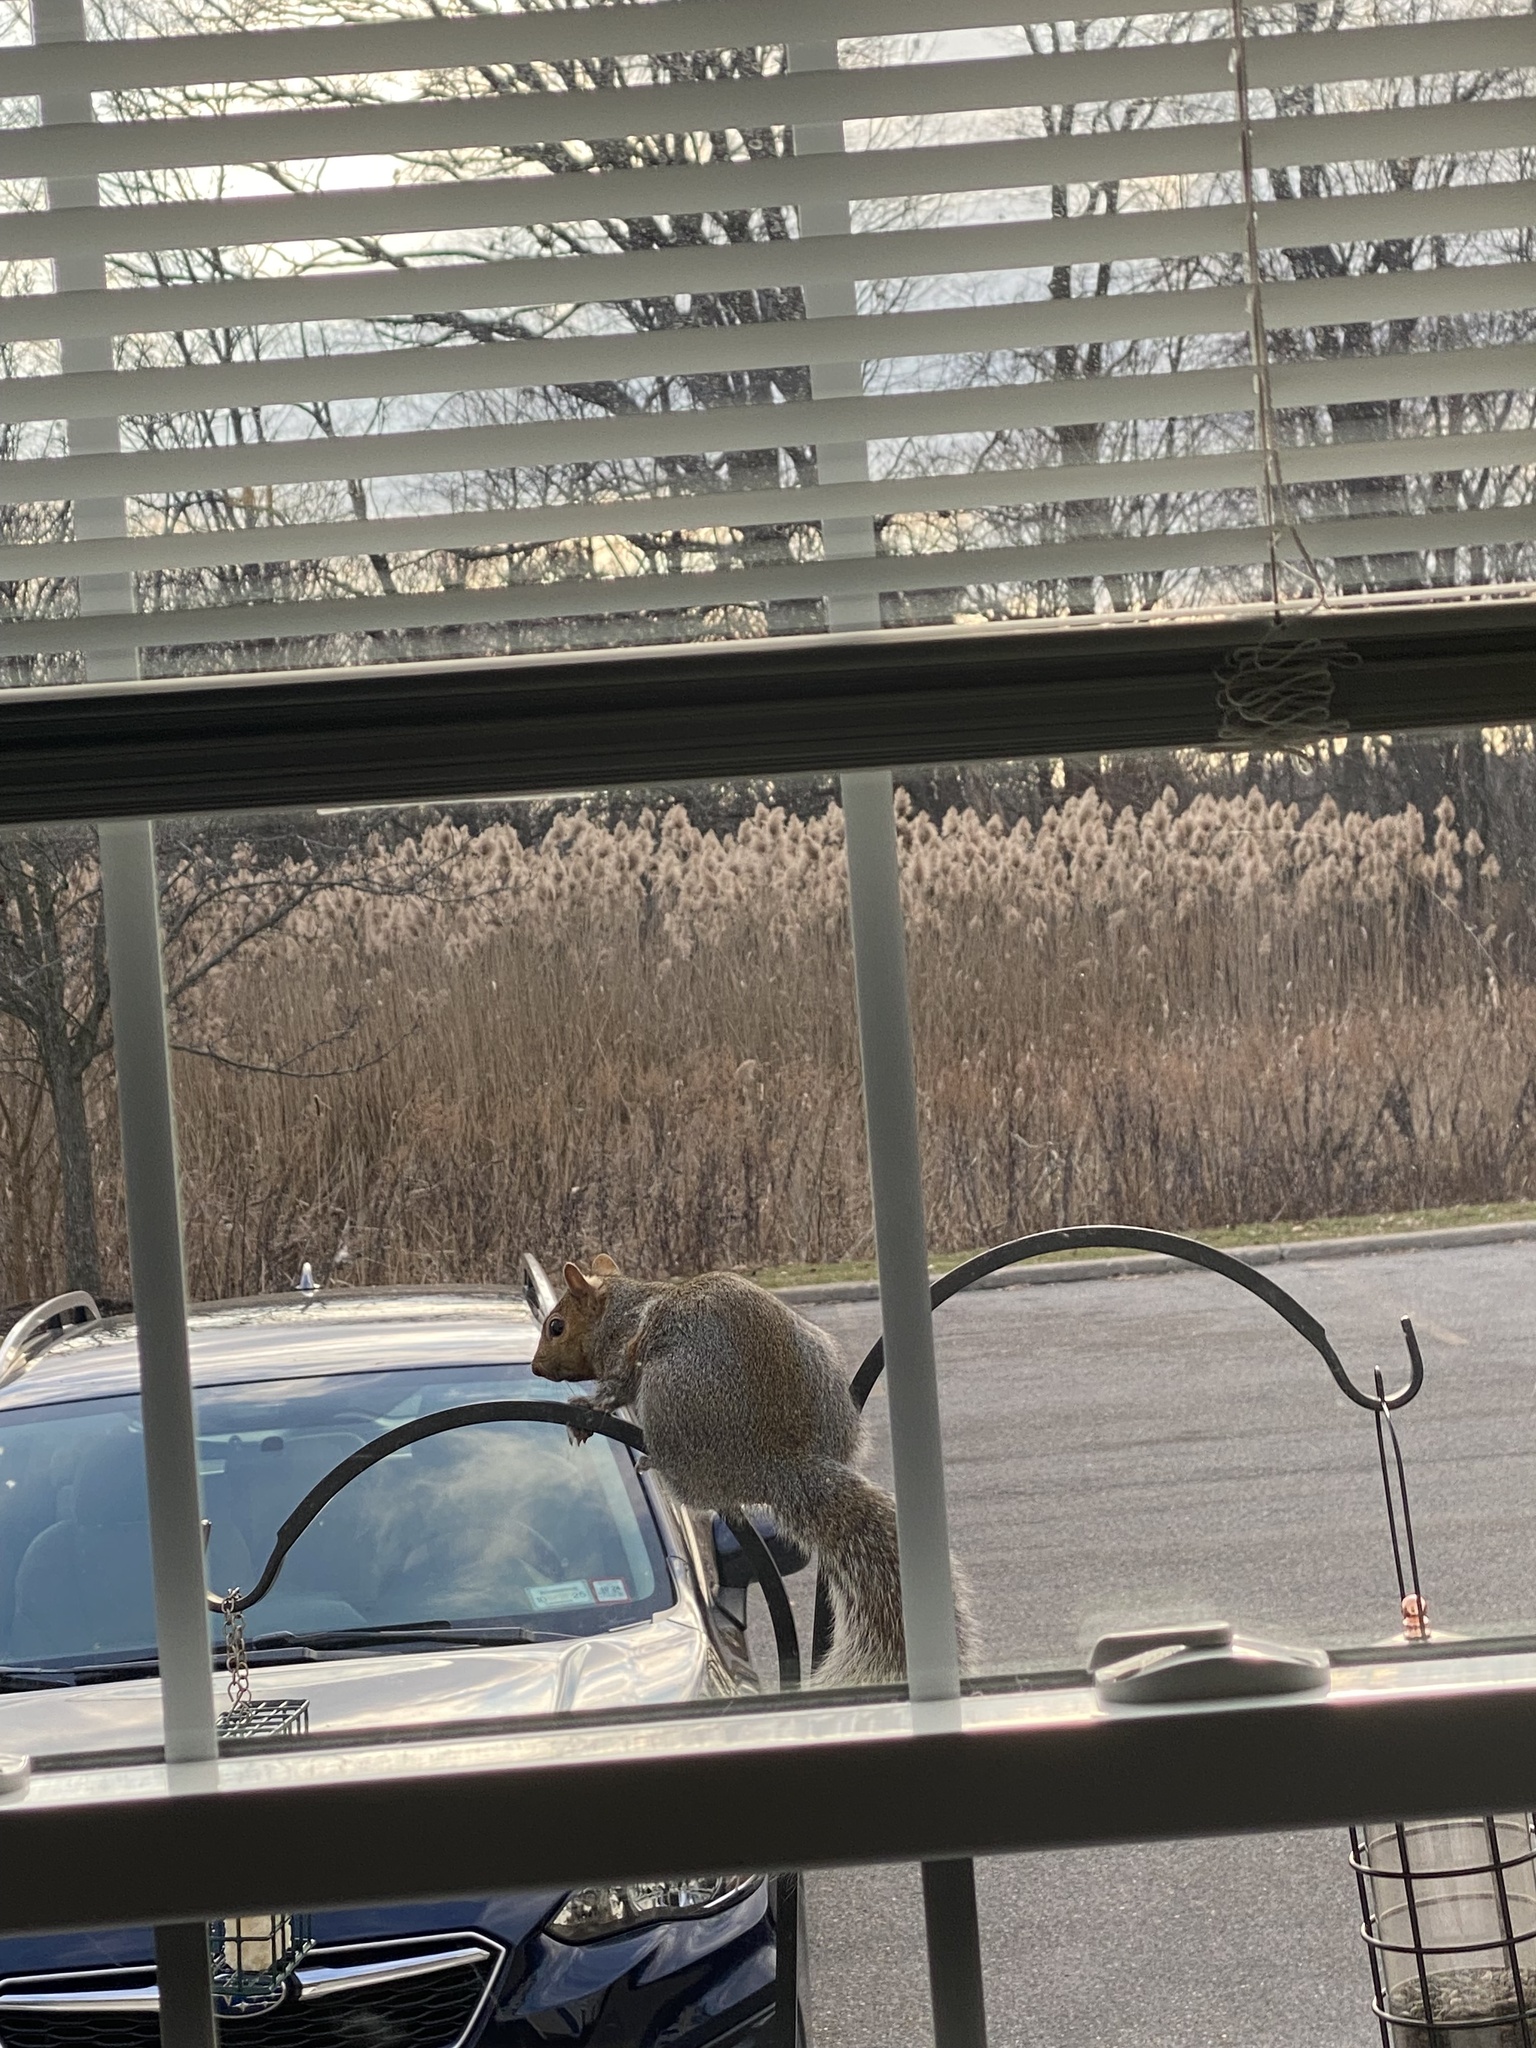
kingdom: Animalia
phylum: Chordata
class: Mammalia
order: Rodentia
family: Sciuridae
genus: Sciurus
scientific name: Sciurus carolinensis
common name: Eastern gray squirrel
